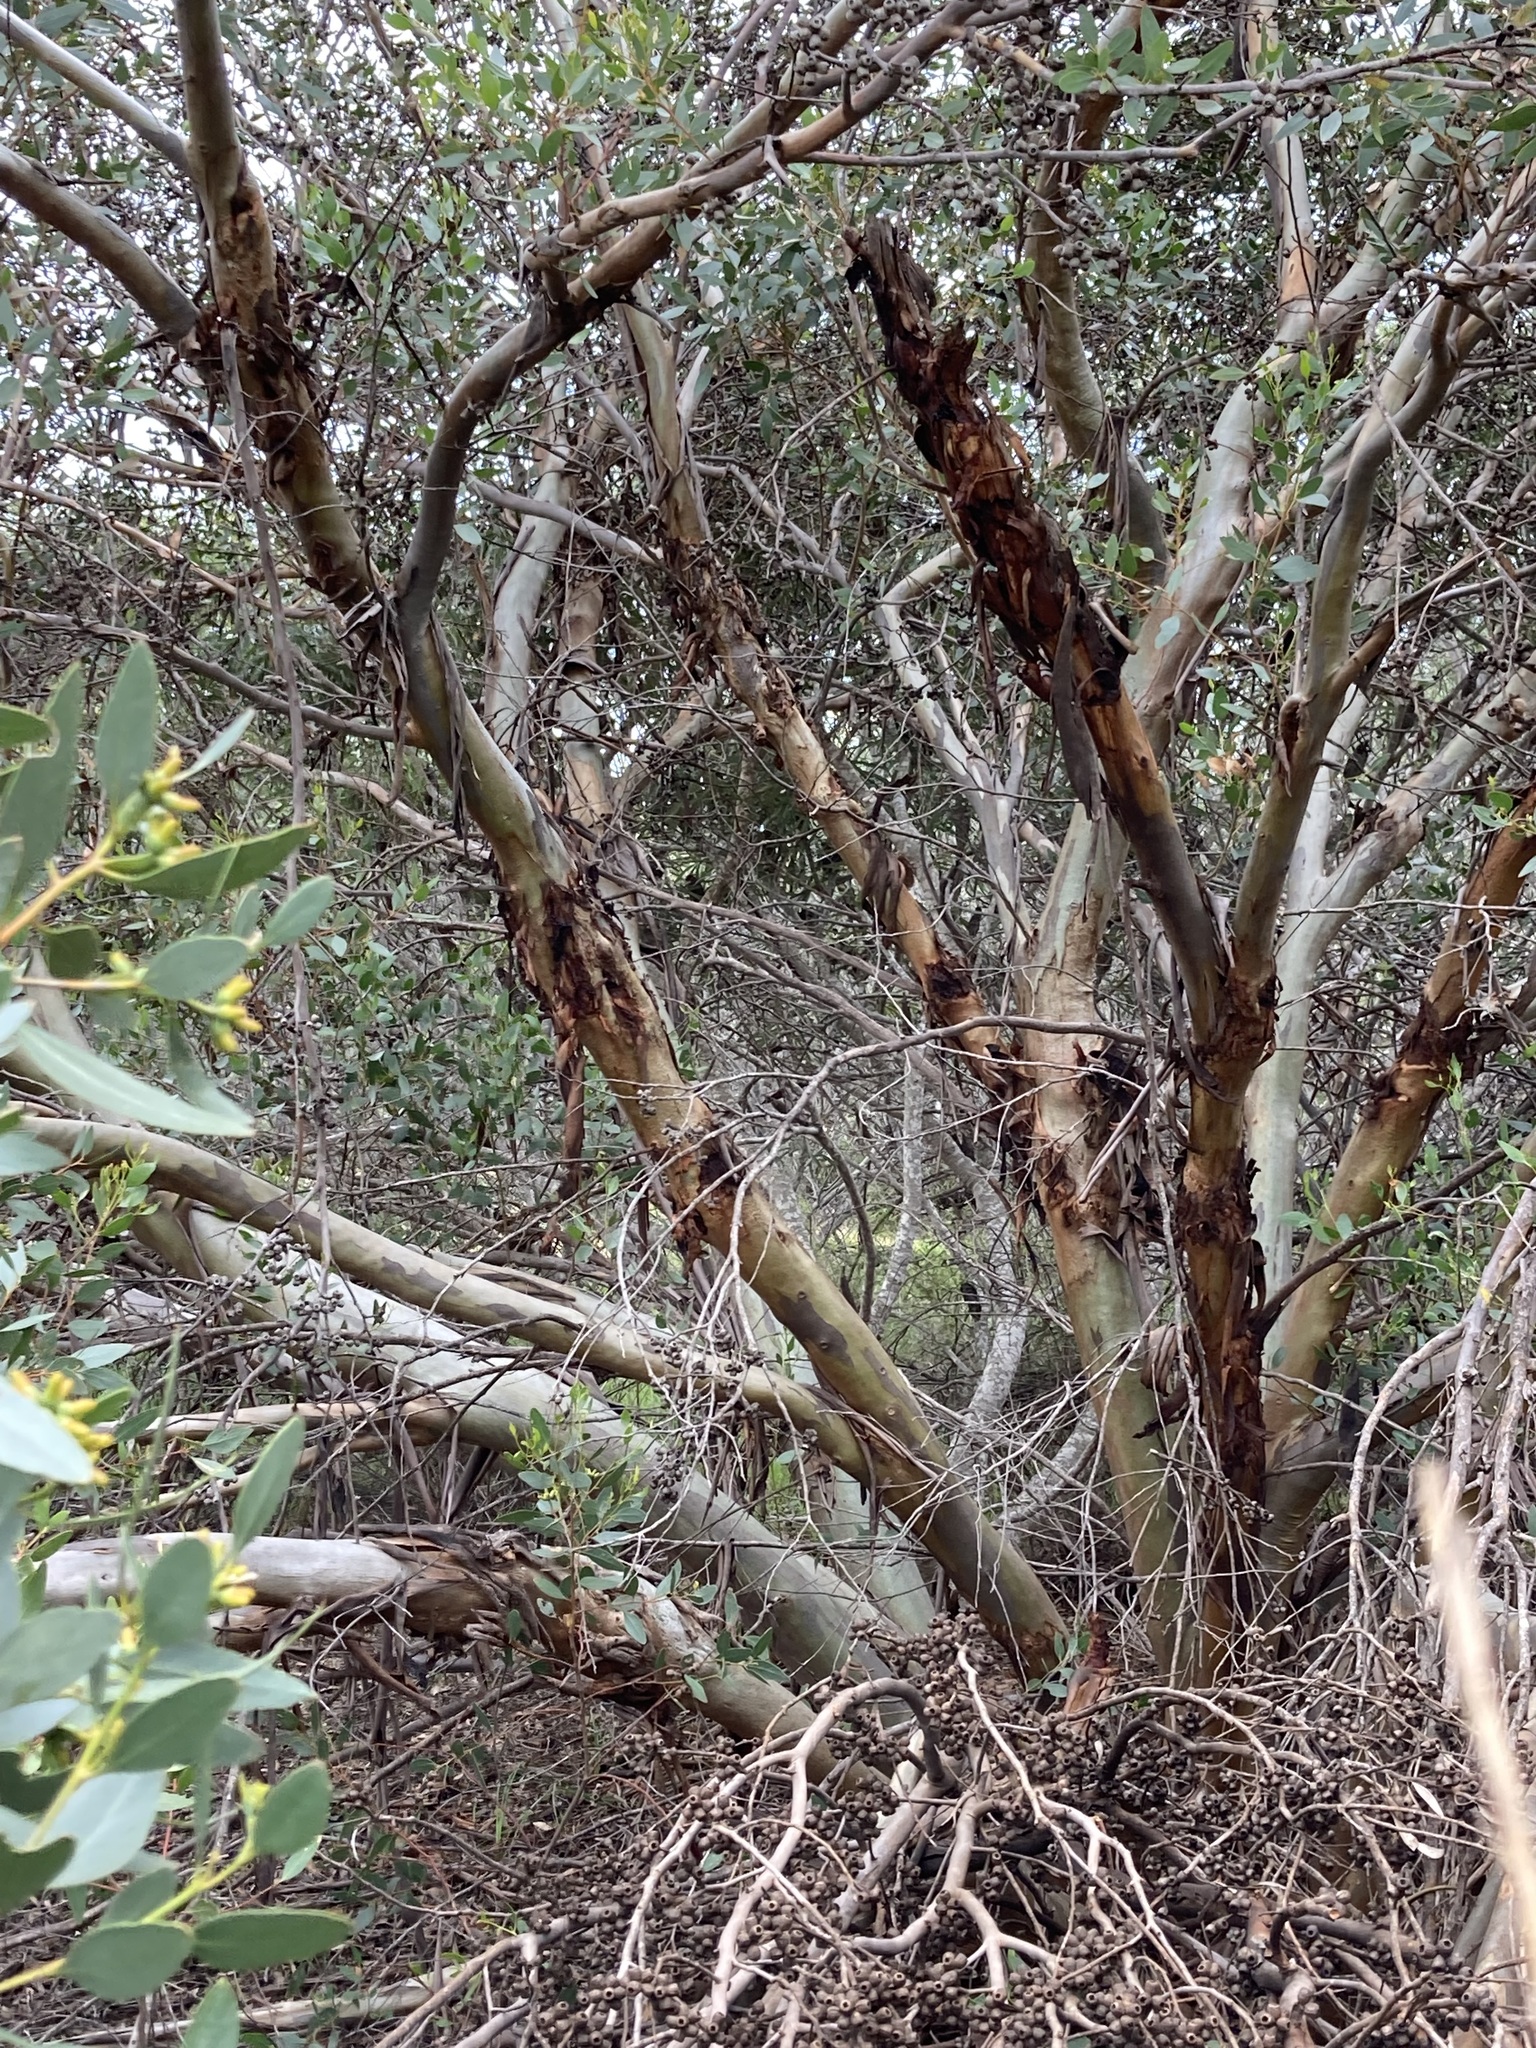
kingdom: Plantae
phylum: Tracheophyta
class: Magnoliopsida
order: Myrtales
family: Myrtaceae
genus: Eucalyptus
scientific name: Eucalyptus utilis
